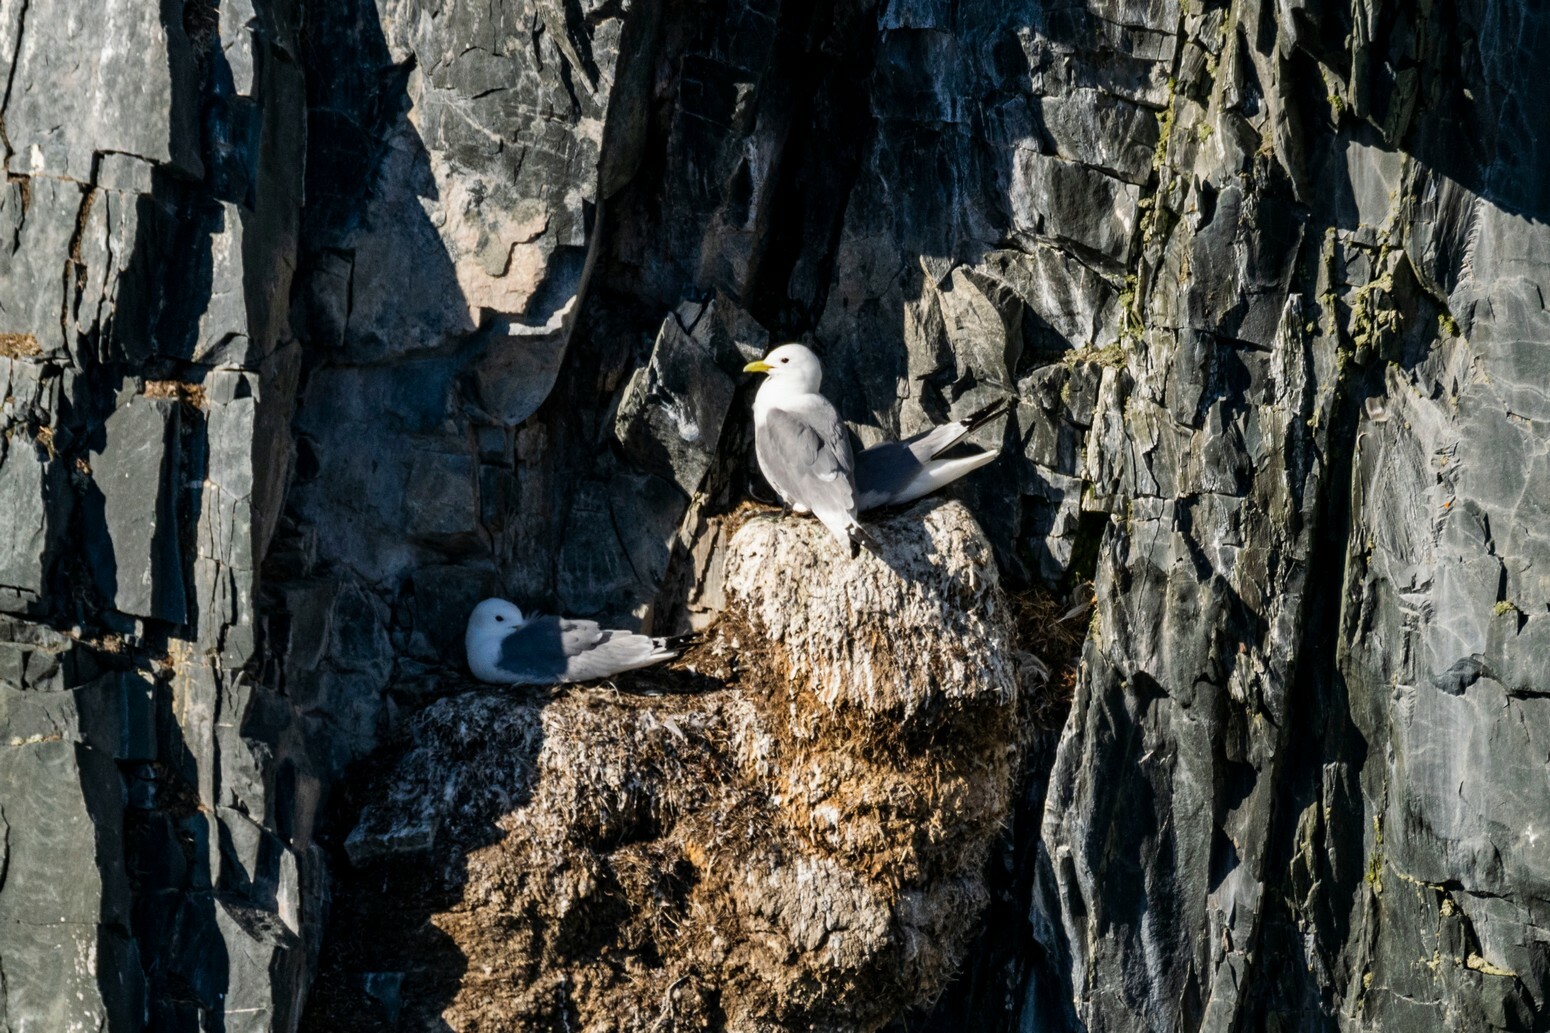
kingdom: Animalia
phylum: Chordata
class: Aves
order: Charadriiformes
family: Laridae
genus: Rissa
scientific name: Rissa tridactyla
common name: Black-legged kittiwake
